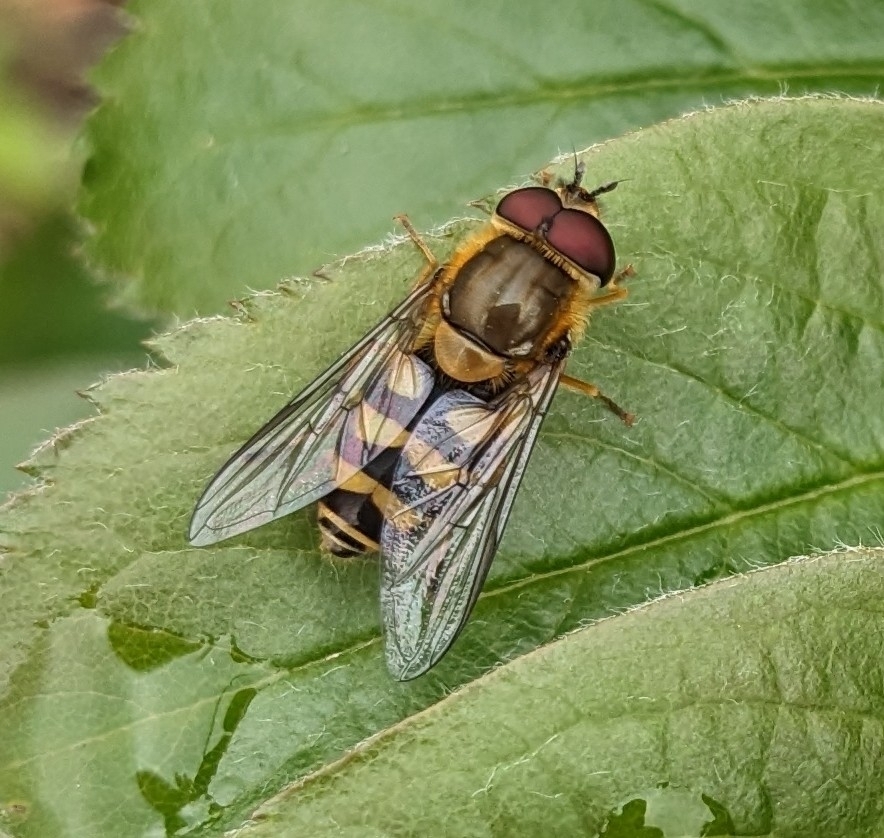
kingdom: Animalia
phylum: Arthropoda
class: Insecta
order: Diptera
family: Syrphidae
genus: Syrphus
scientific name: Syrphus
